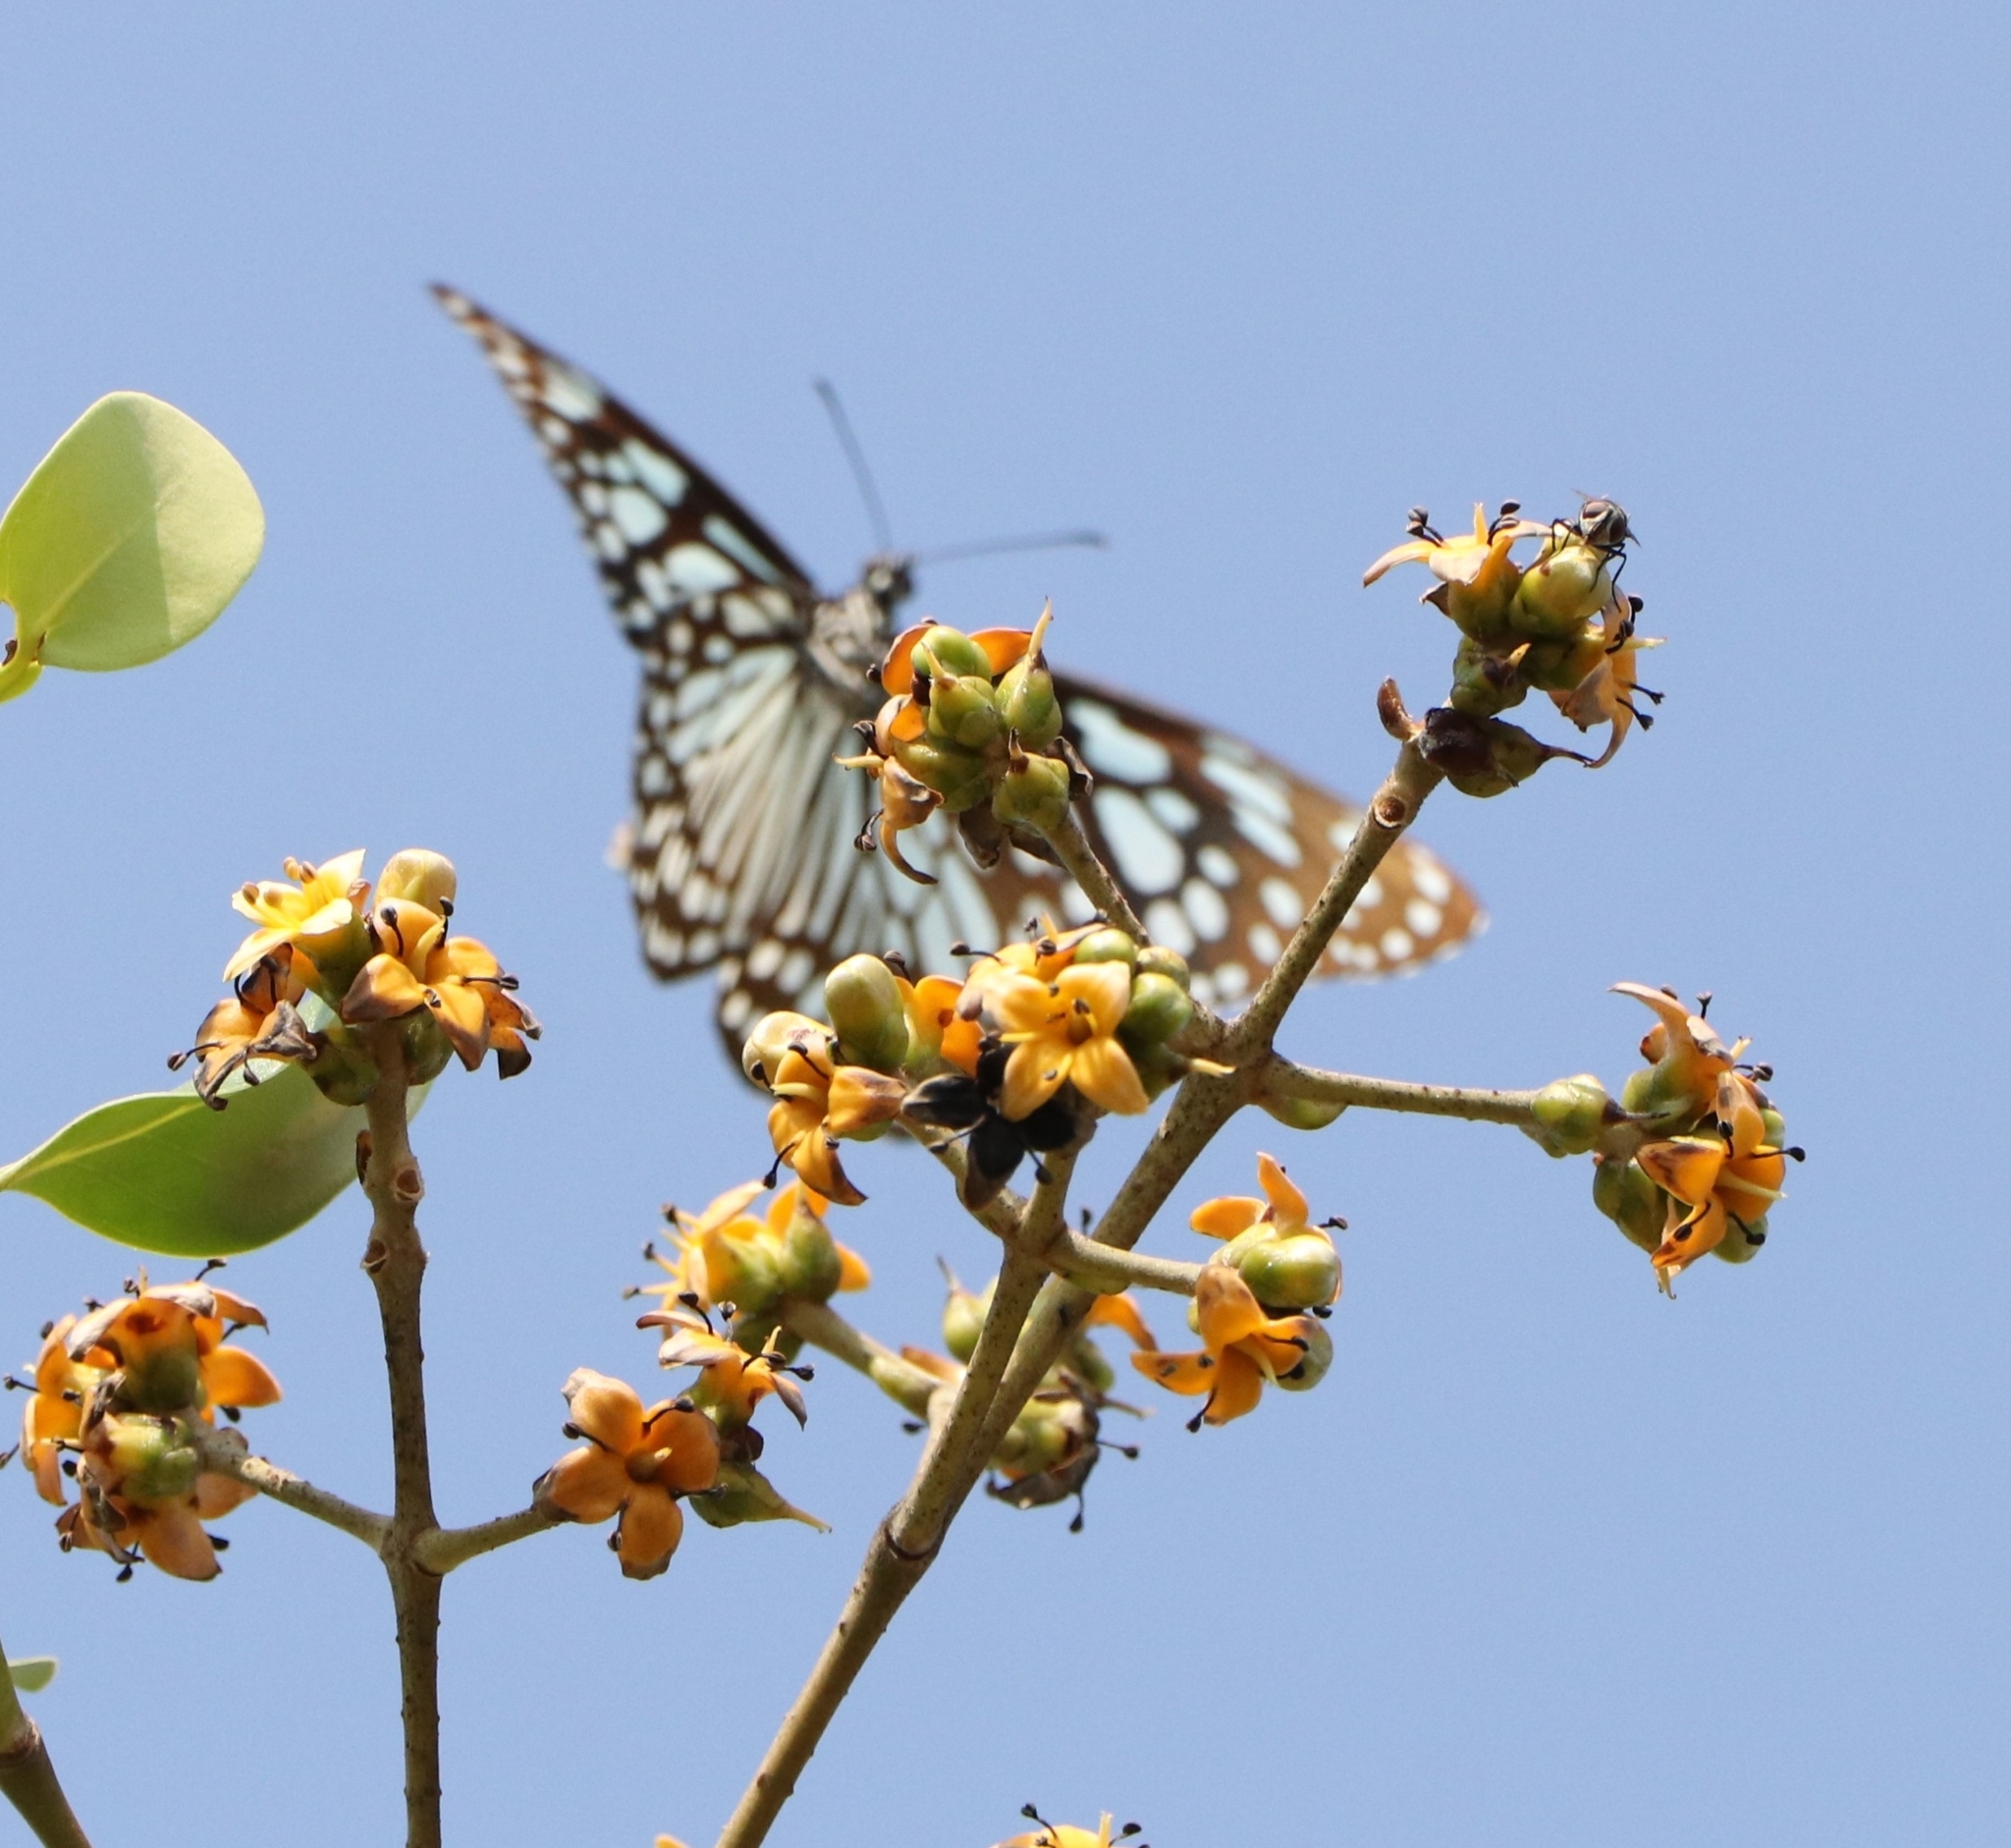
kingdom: Animalia
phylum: Arthropoda
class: Insecta
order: Lepidoptera
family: Nymphalidae
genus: Tirumala
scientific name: Tirumala limniace
